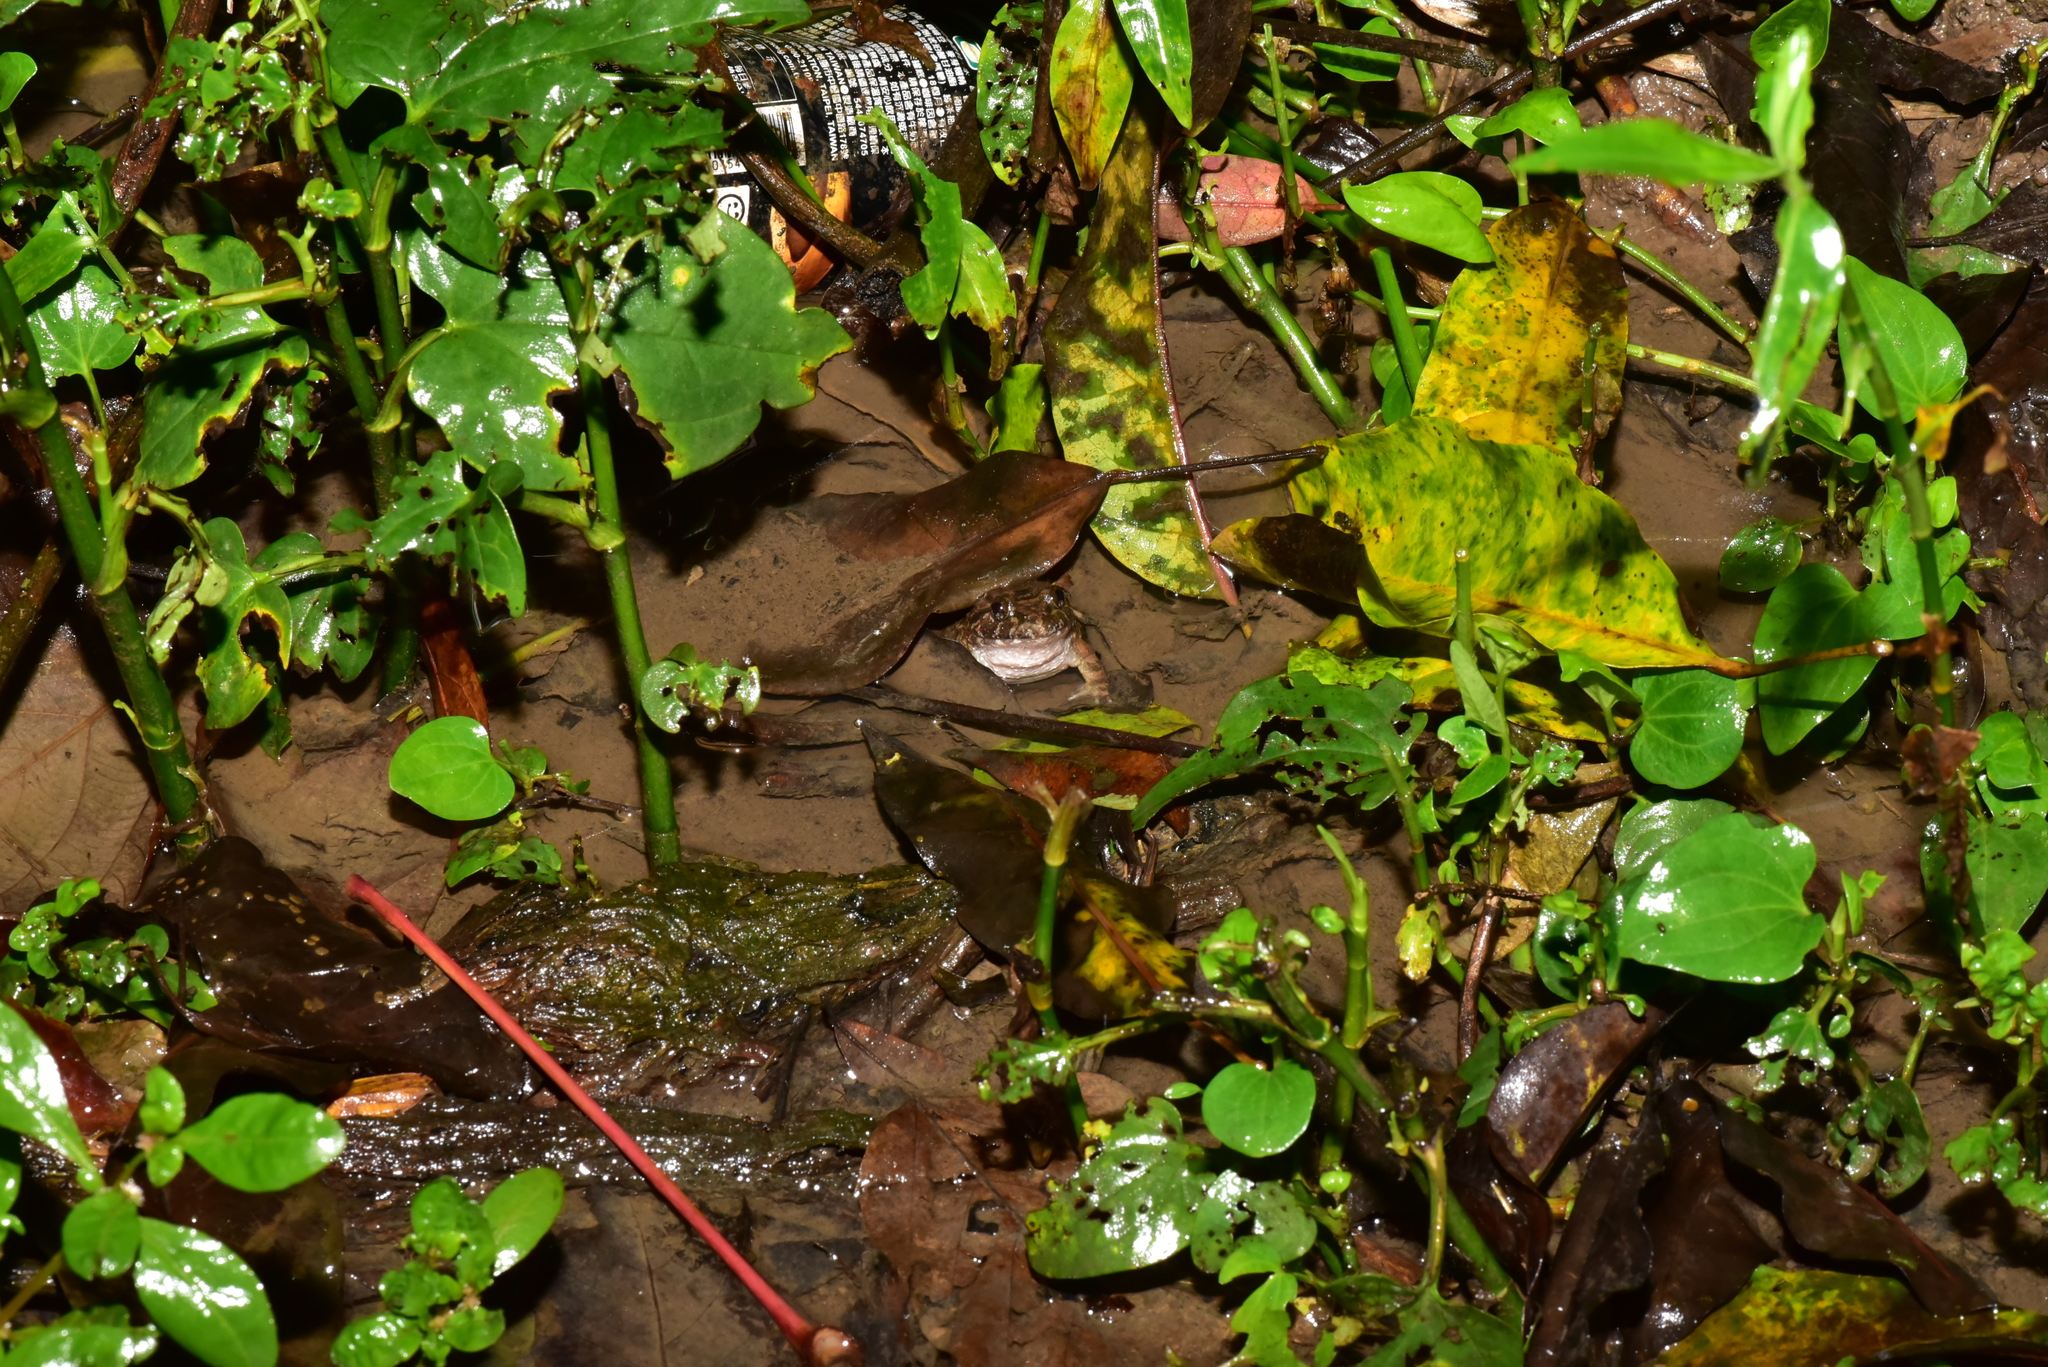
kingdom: Animalia
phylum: Chordata
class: Amphibia
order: Anura
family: Dicroglossidae
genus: Limnonectes
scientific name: Limnonectes fujianensis
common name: Fujian large-headed frog
